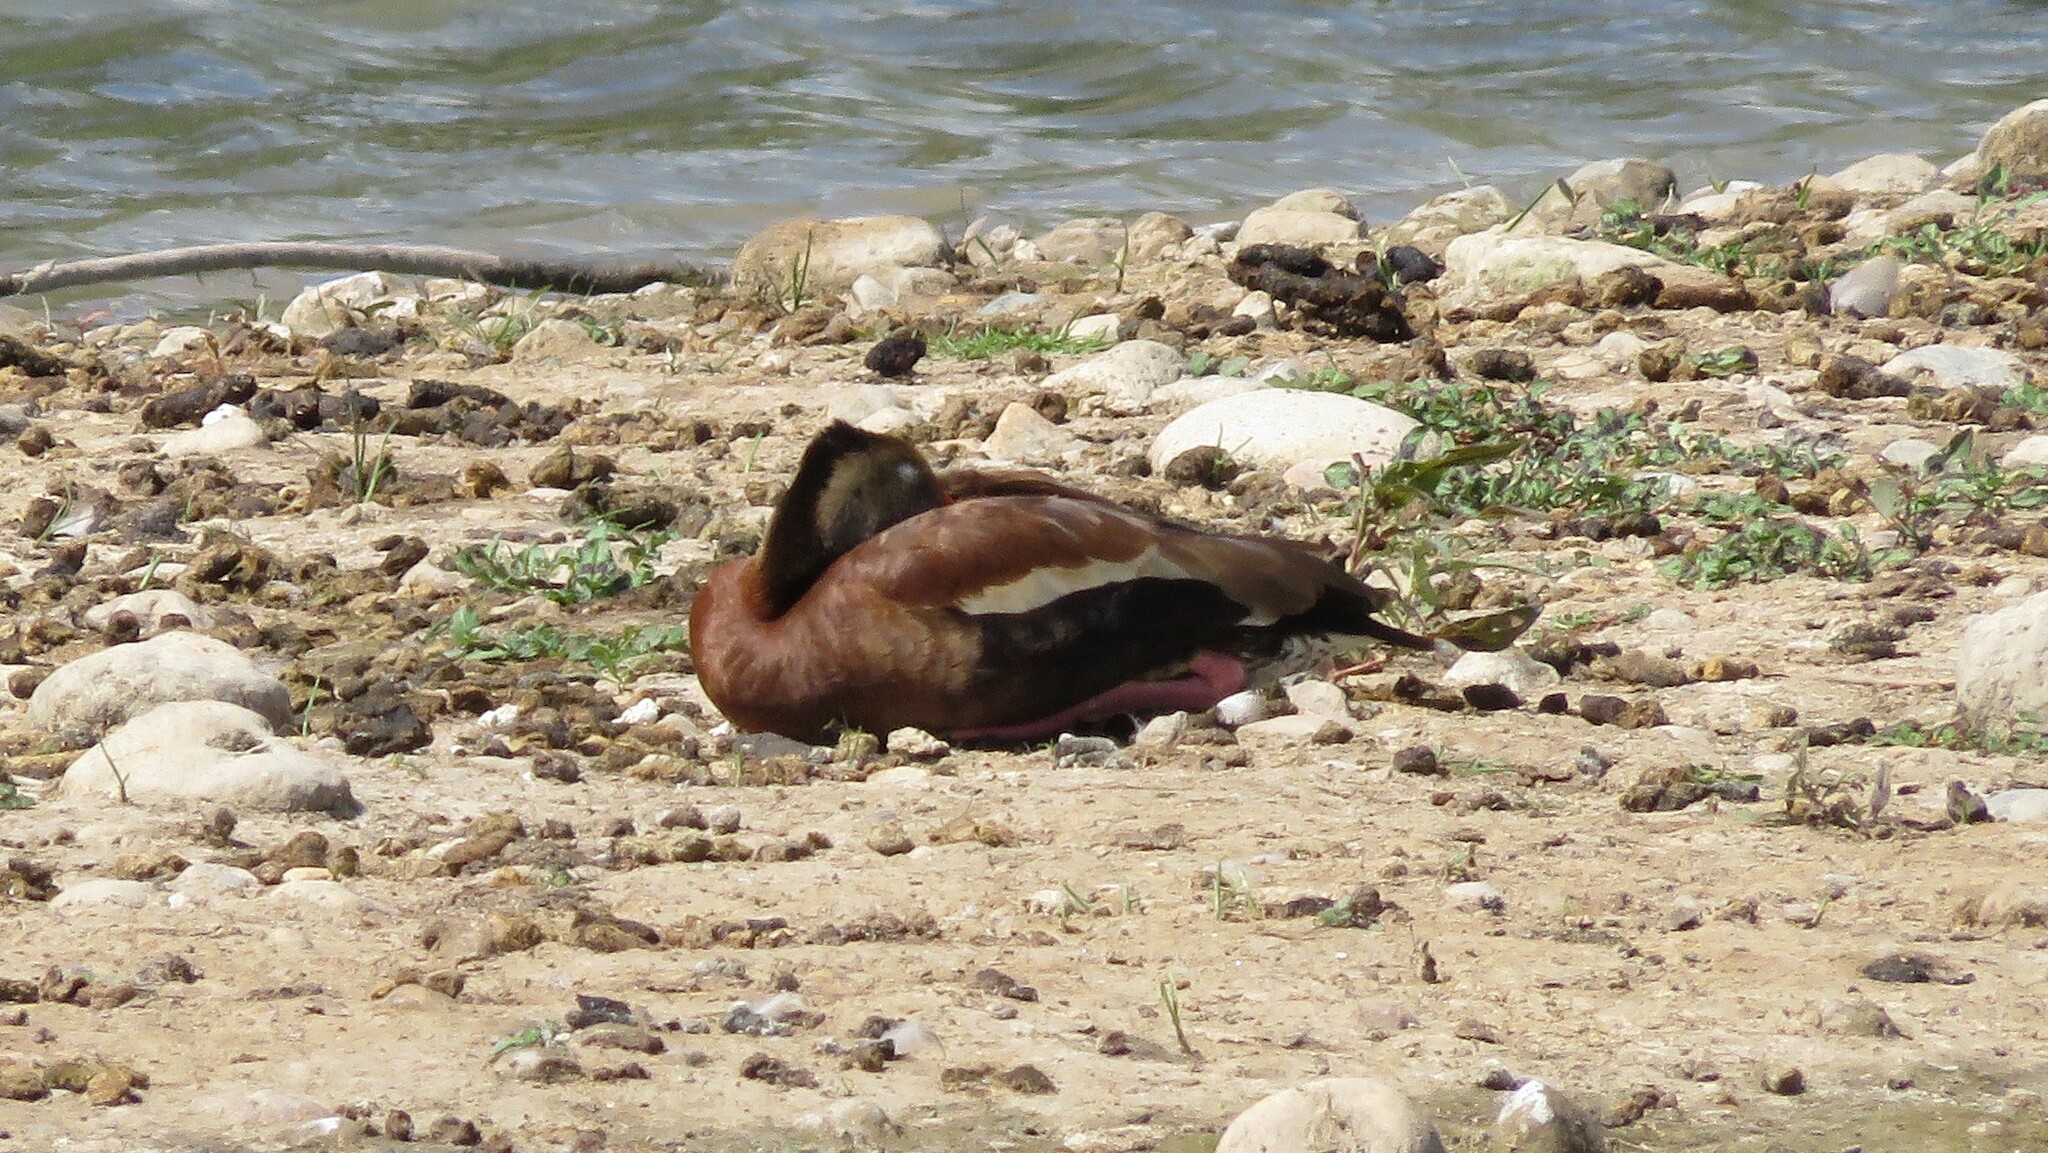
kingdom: Animalia
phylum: Chordata
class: Aves
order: Anseriformes
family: Anatidae
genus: Dendrocygna
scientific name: Dendrocygna autumnalis
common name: Black-bellied whistling duck
